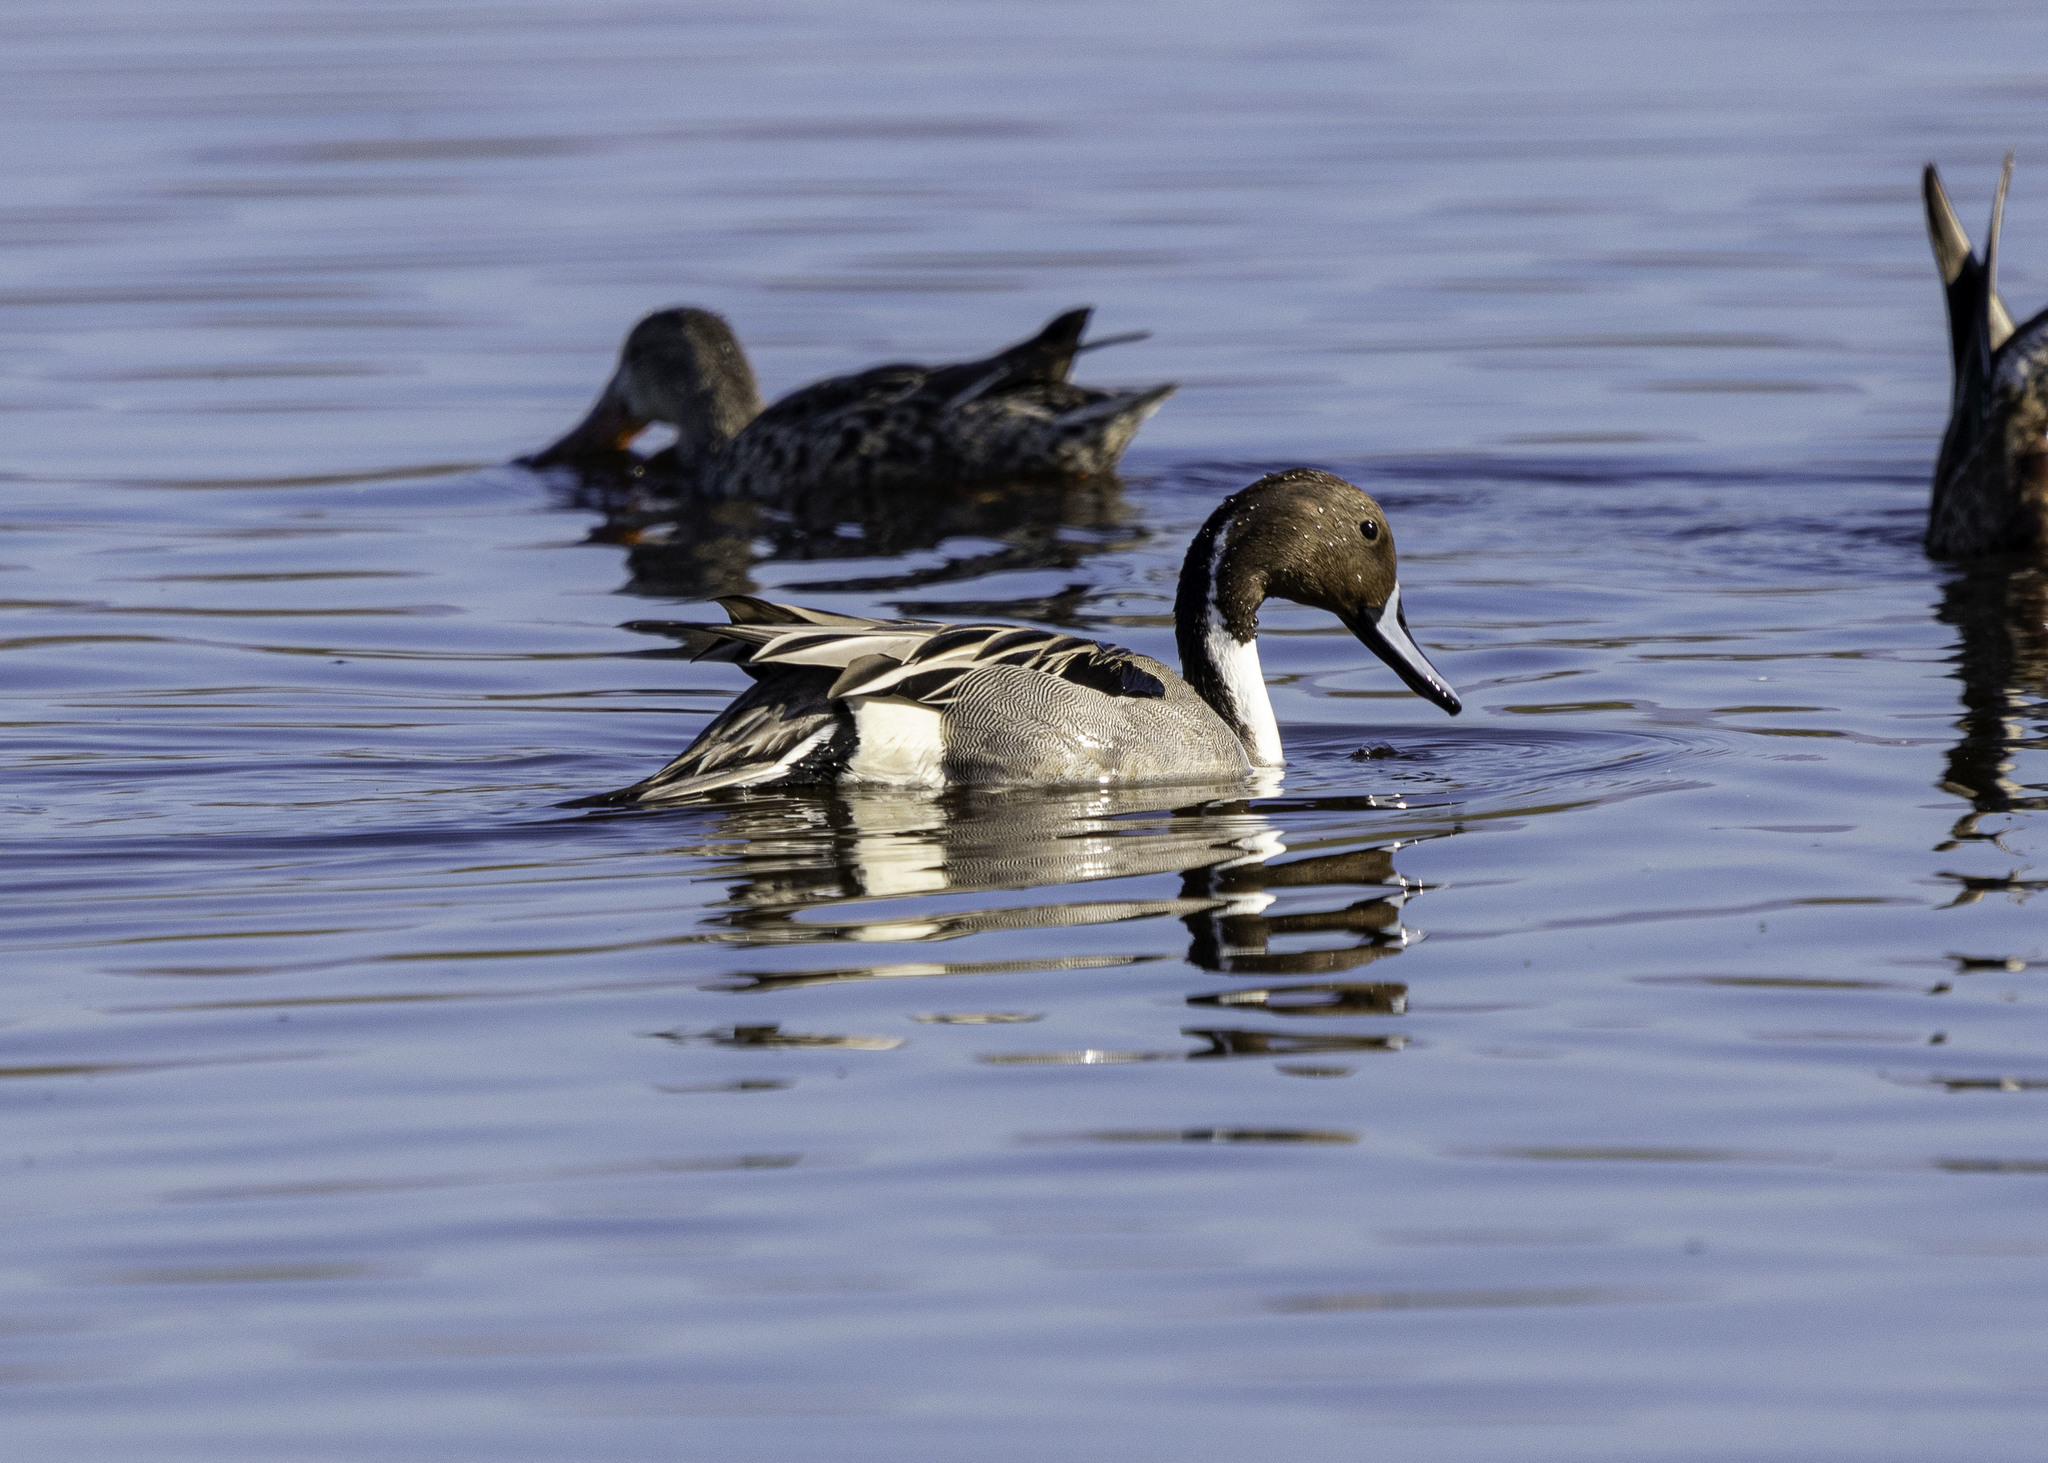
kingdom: Animalia
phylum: Chordata
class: Aves
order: Anseriformes
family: Anatidae
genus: Anas
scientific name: Anas acuta
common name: Northern pintail
